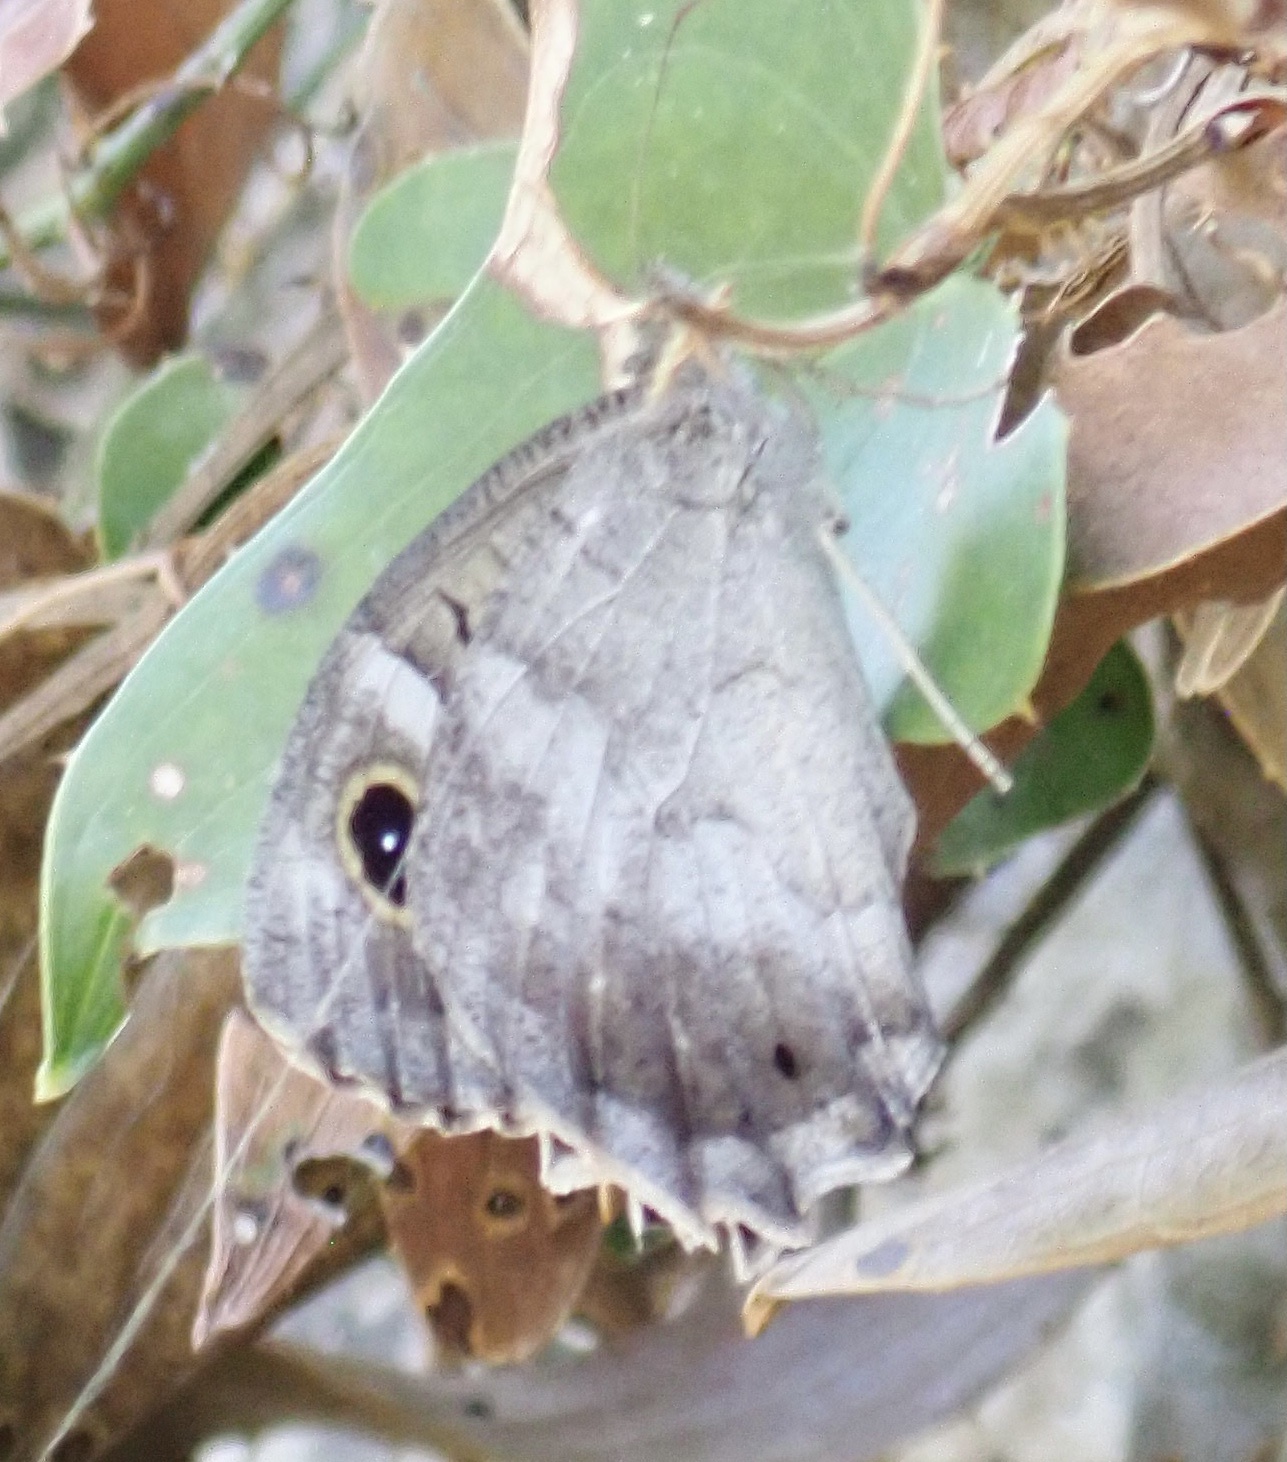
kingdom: Animalia
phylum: Arthropoda
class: Insecta
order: Lepidoptera
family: Nymphalidae
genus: Hipparchia
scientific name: Hipparchia statilinus
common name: Tree grayling
